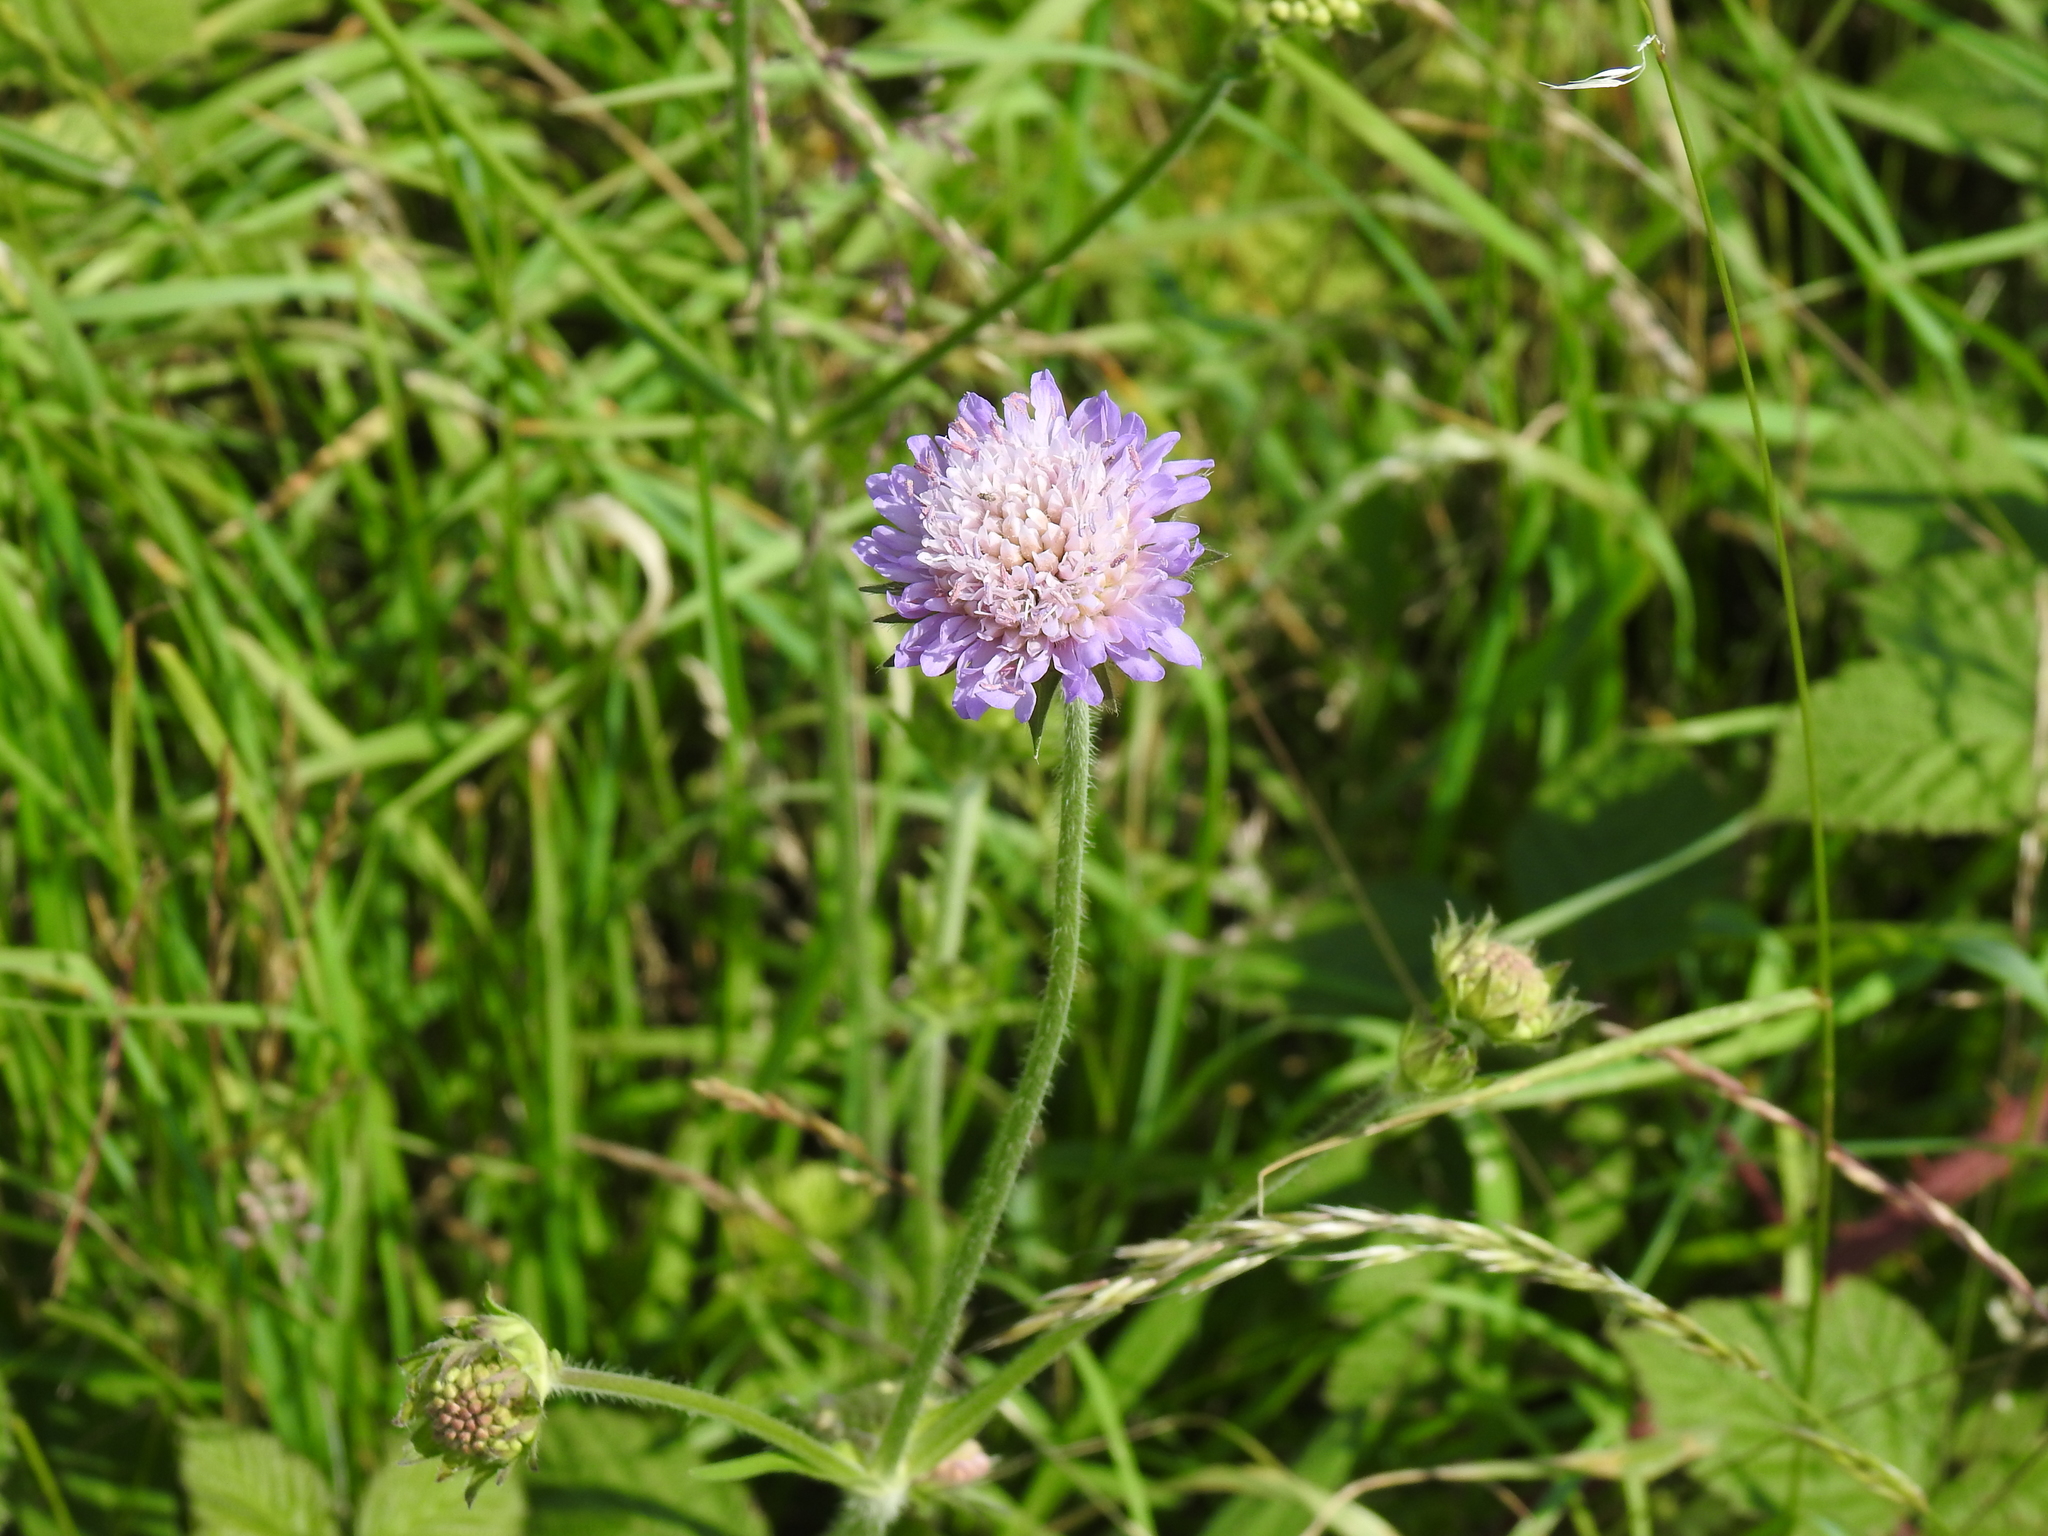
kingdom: Plantae
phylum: Tracheophyta
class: Magnoliopsida
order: Dipsacales
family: Caprifoliaceae
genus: Knautia
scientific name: Knautia arvensis
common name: Field scabiosa
